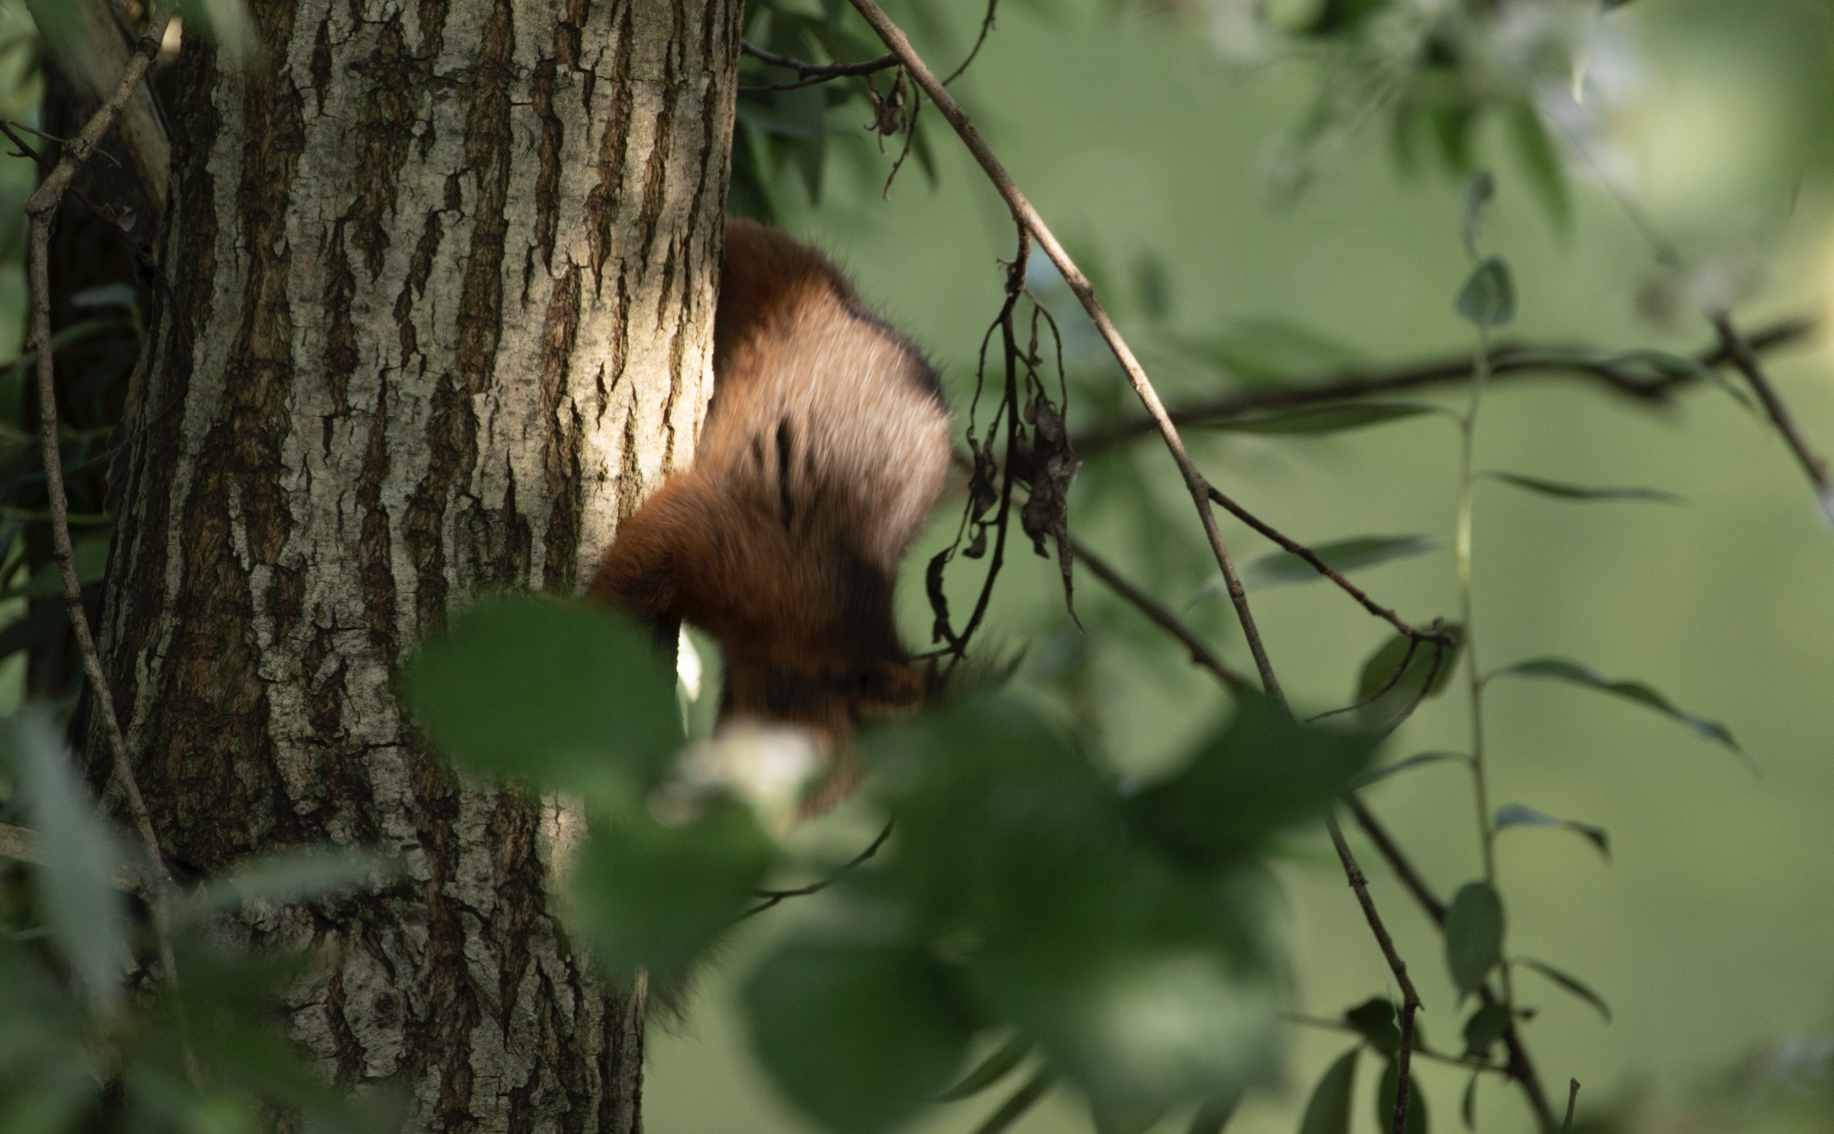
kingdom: Animalia
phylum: Chordata
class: Mammalia
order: Rodentia
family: Sciuridae
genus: Sciurus
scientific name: Sciurus vulgaris
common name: Eurasian red squirrel
